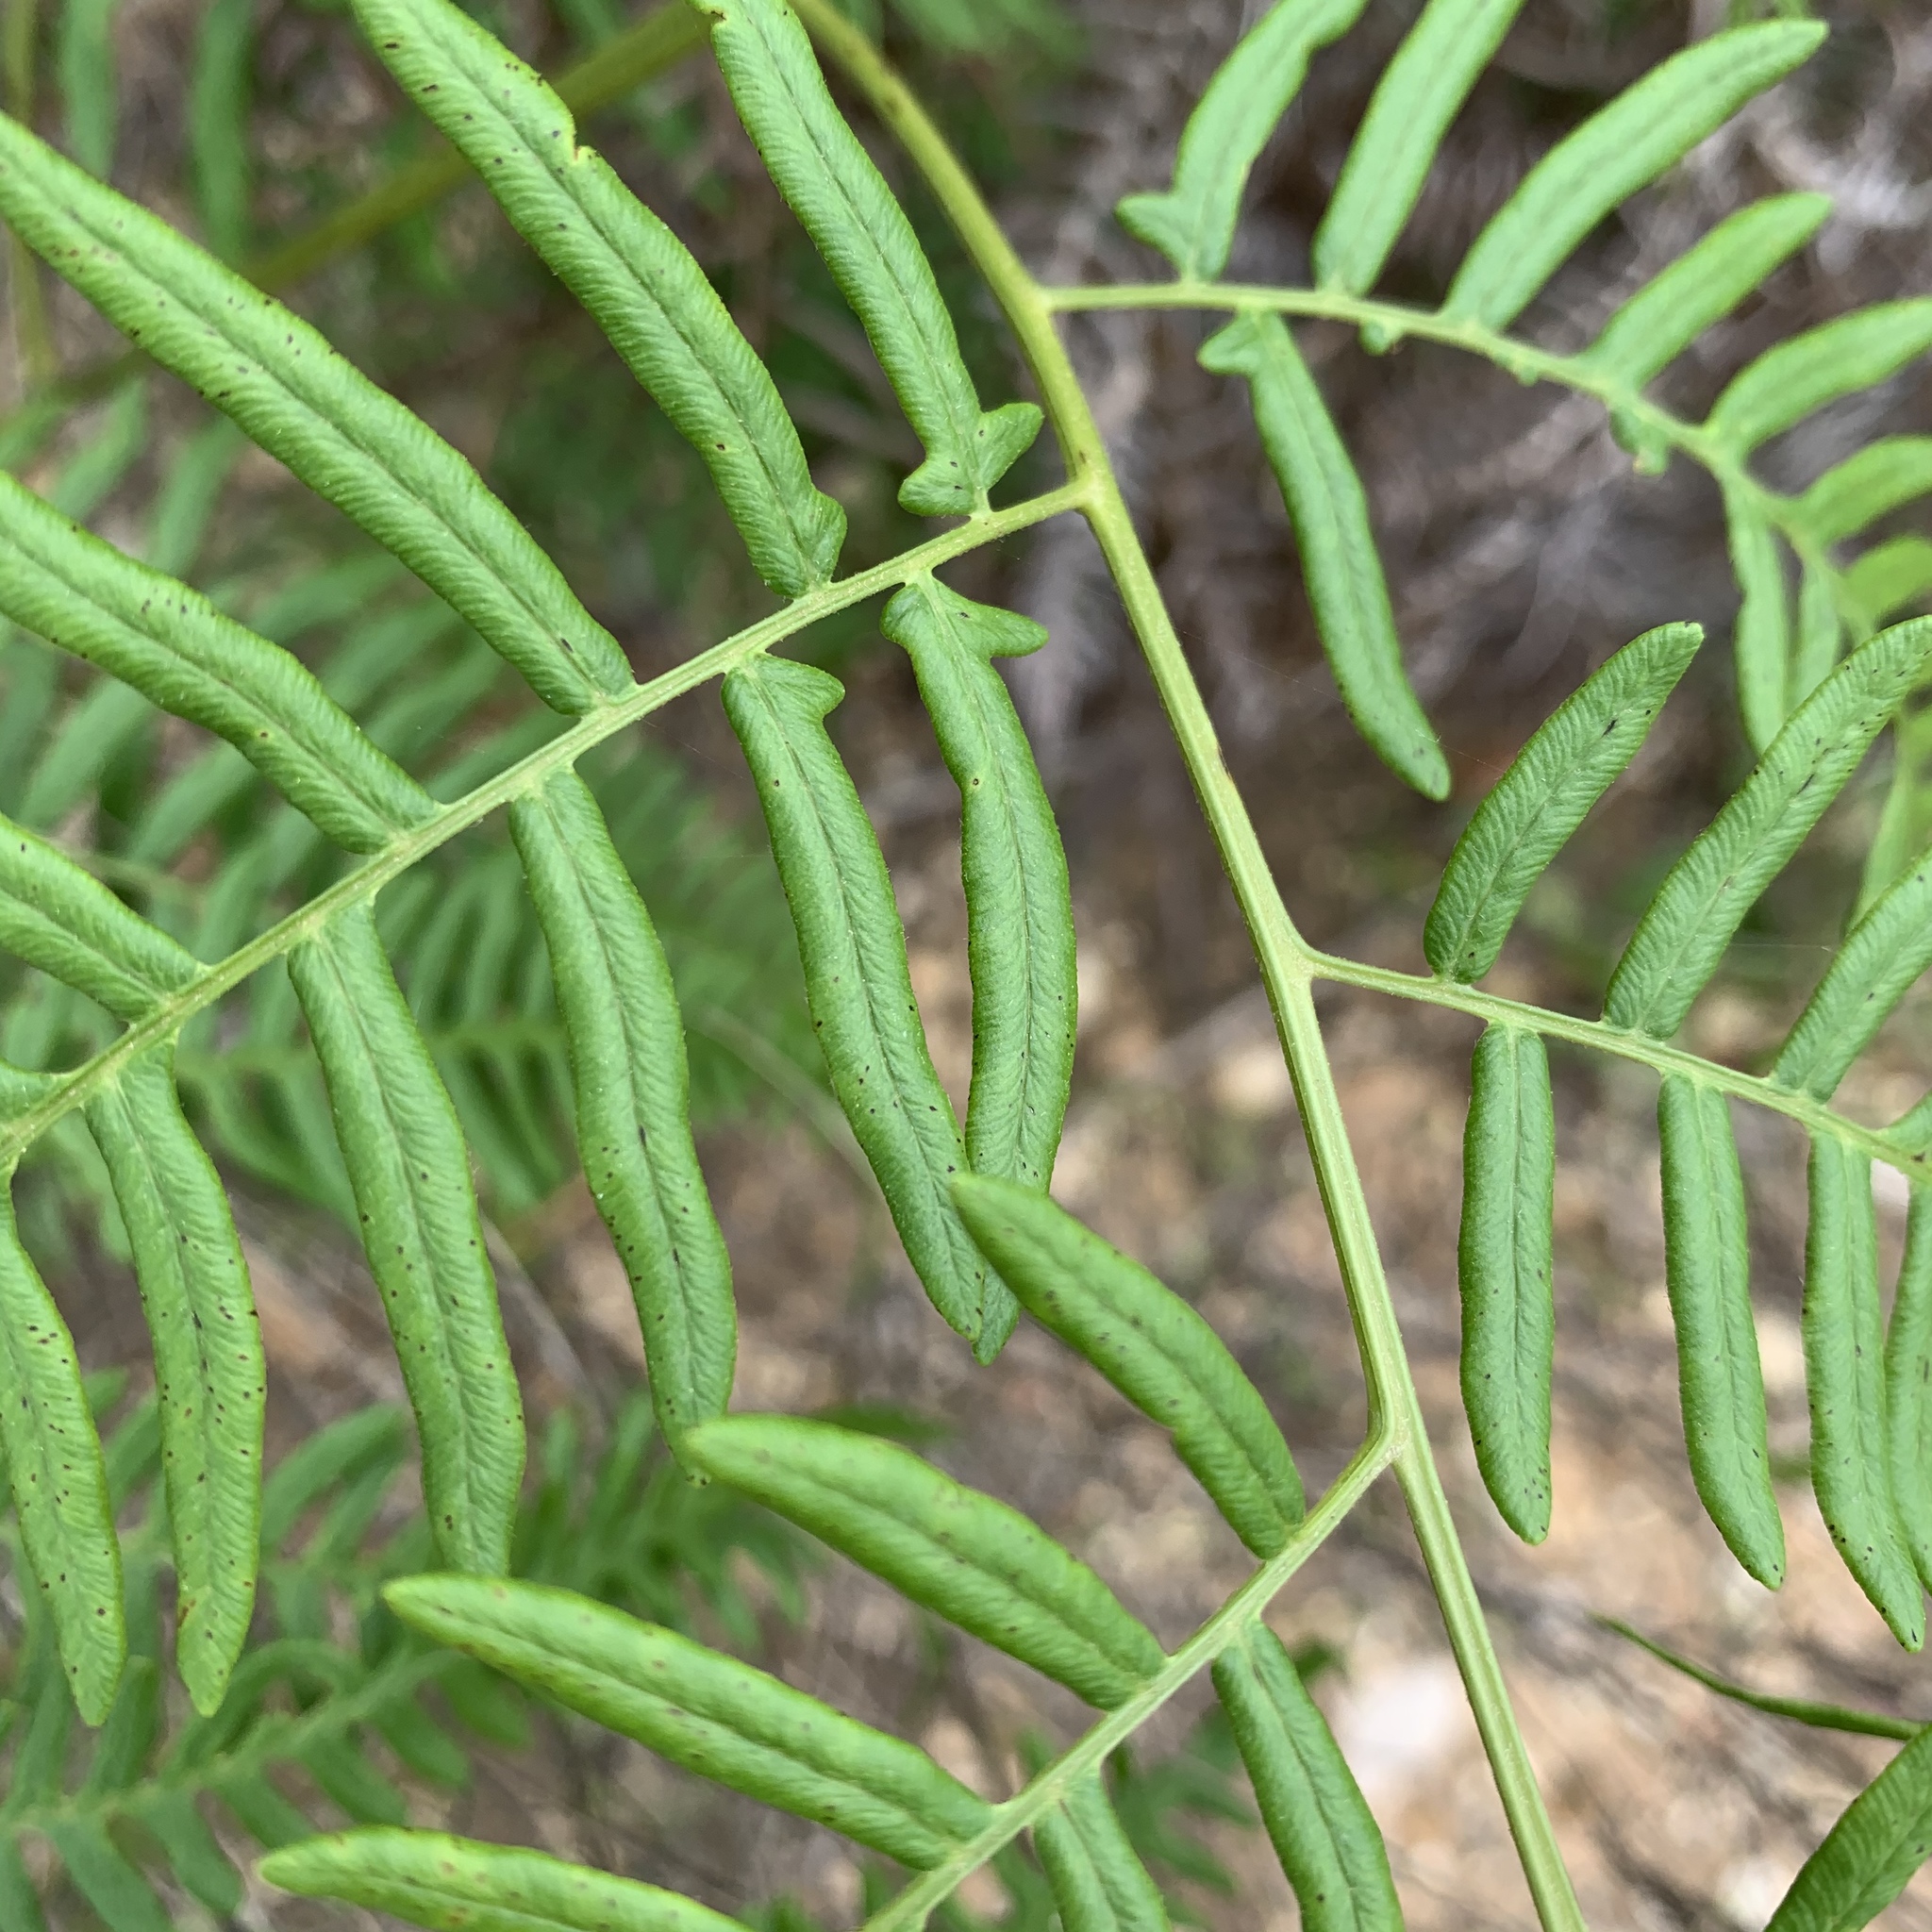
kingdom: Plantae
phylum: Tracheophyta
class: Polypodiopsida
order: Polypodiales
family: Dennstaedtiaceae
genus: Pteridium
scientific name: Pteridium aquilinum
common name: Bracken
